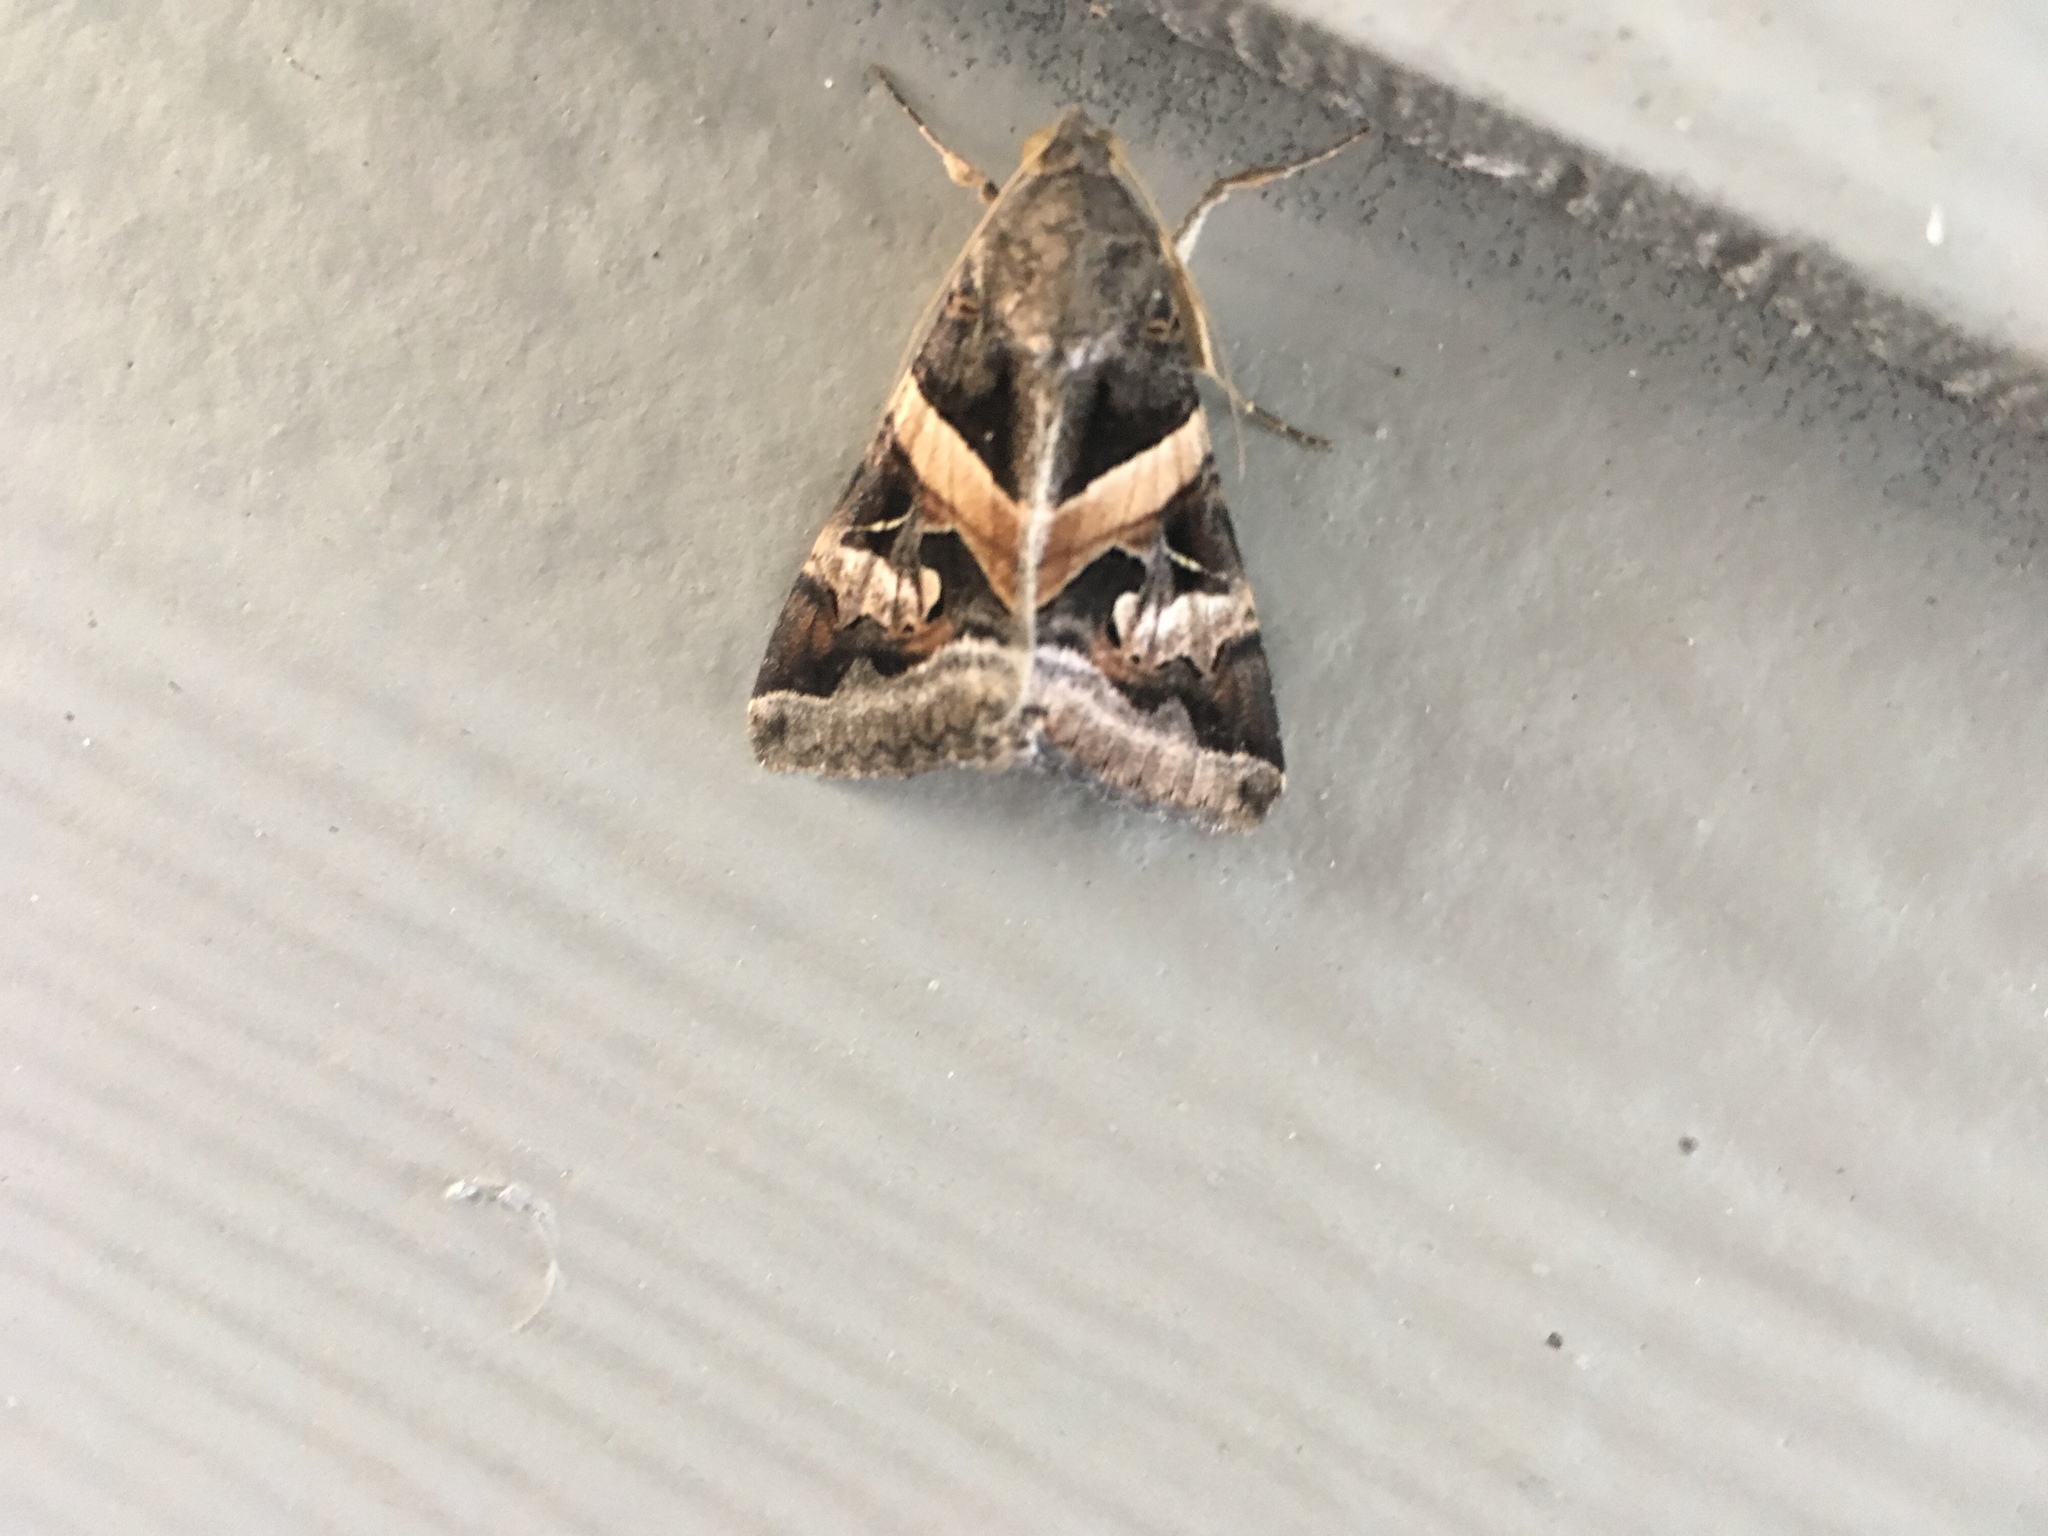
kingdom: Animalia
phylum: Arthropoda
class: Insecta
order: Lepidoptera
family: Erebidae
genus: Melipotis
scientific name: Melipotis indomita
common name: Moth
